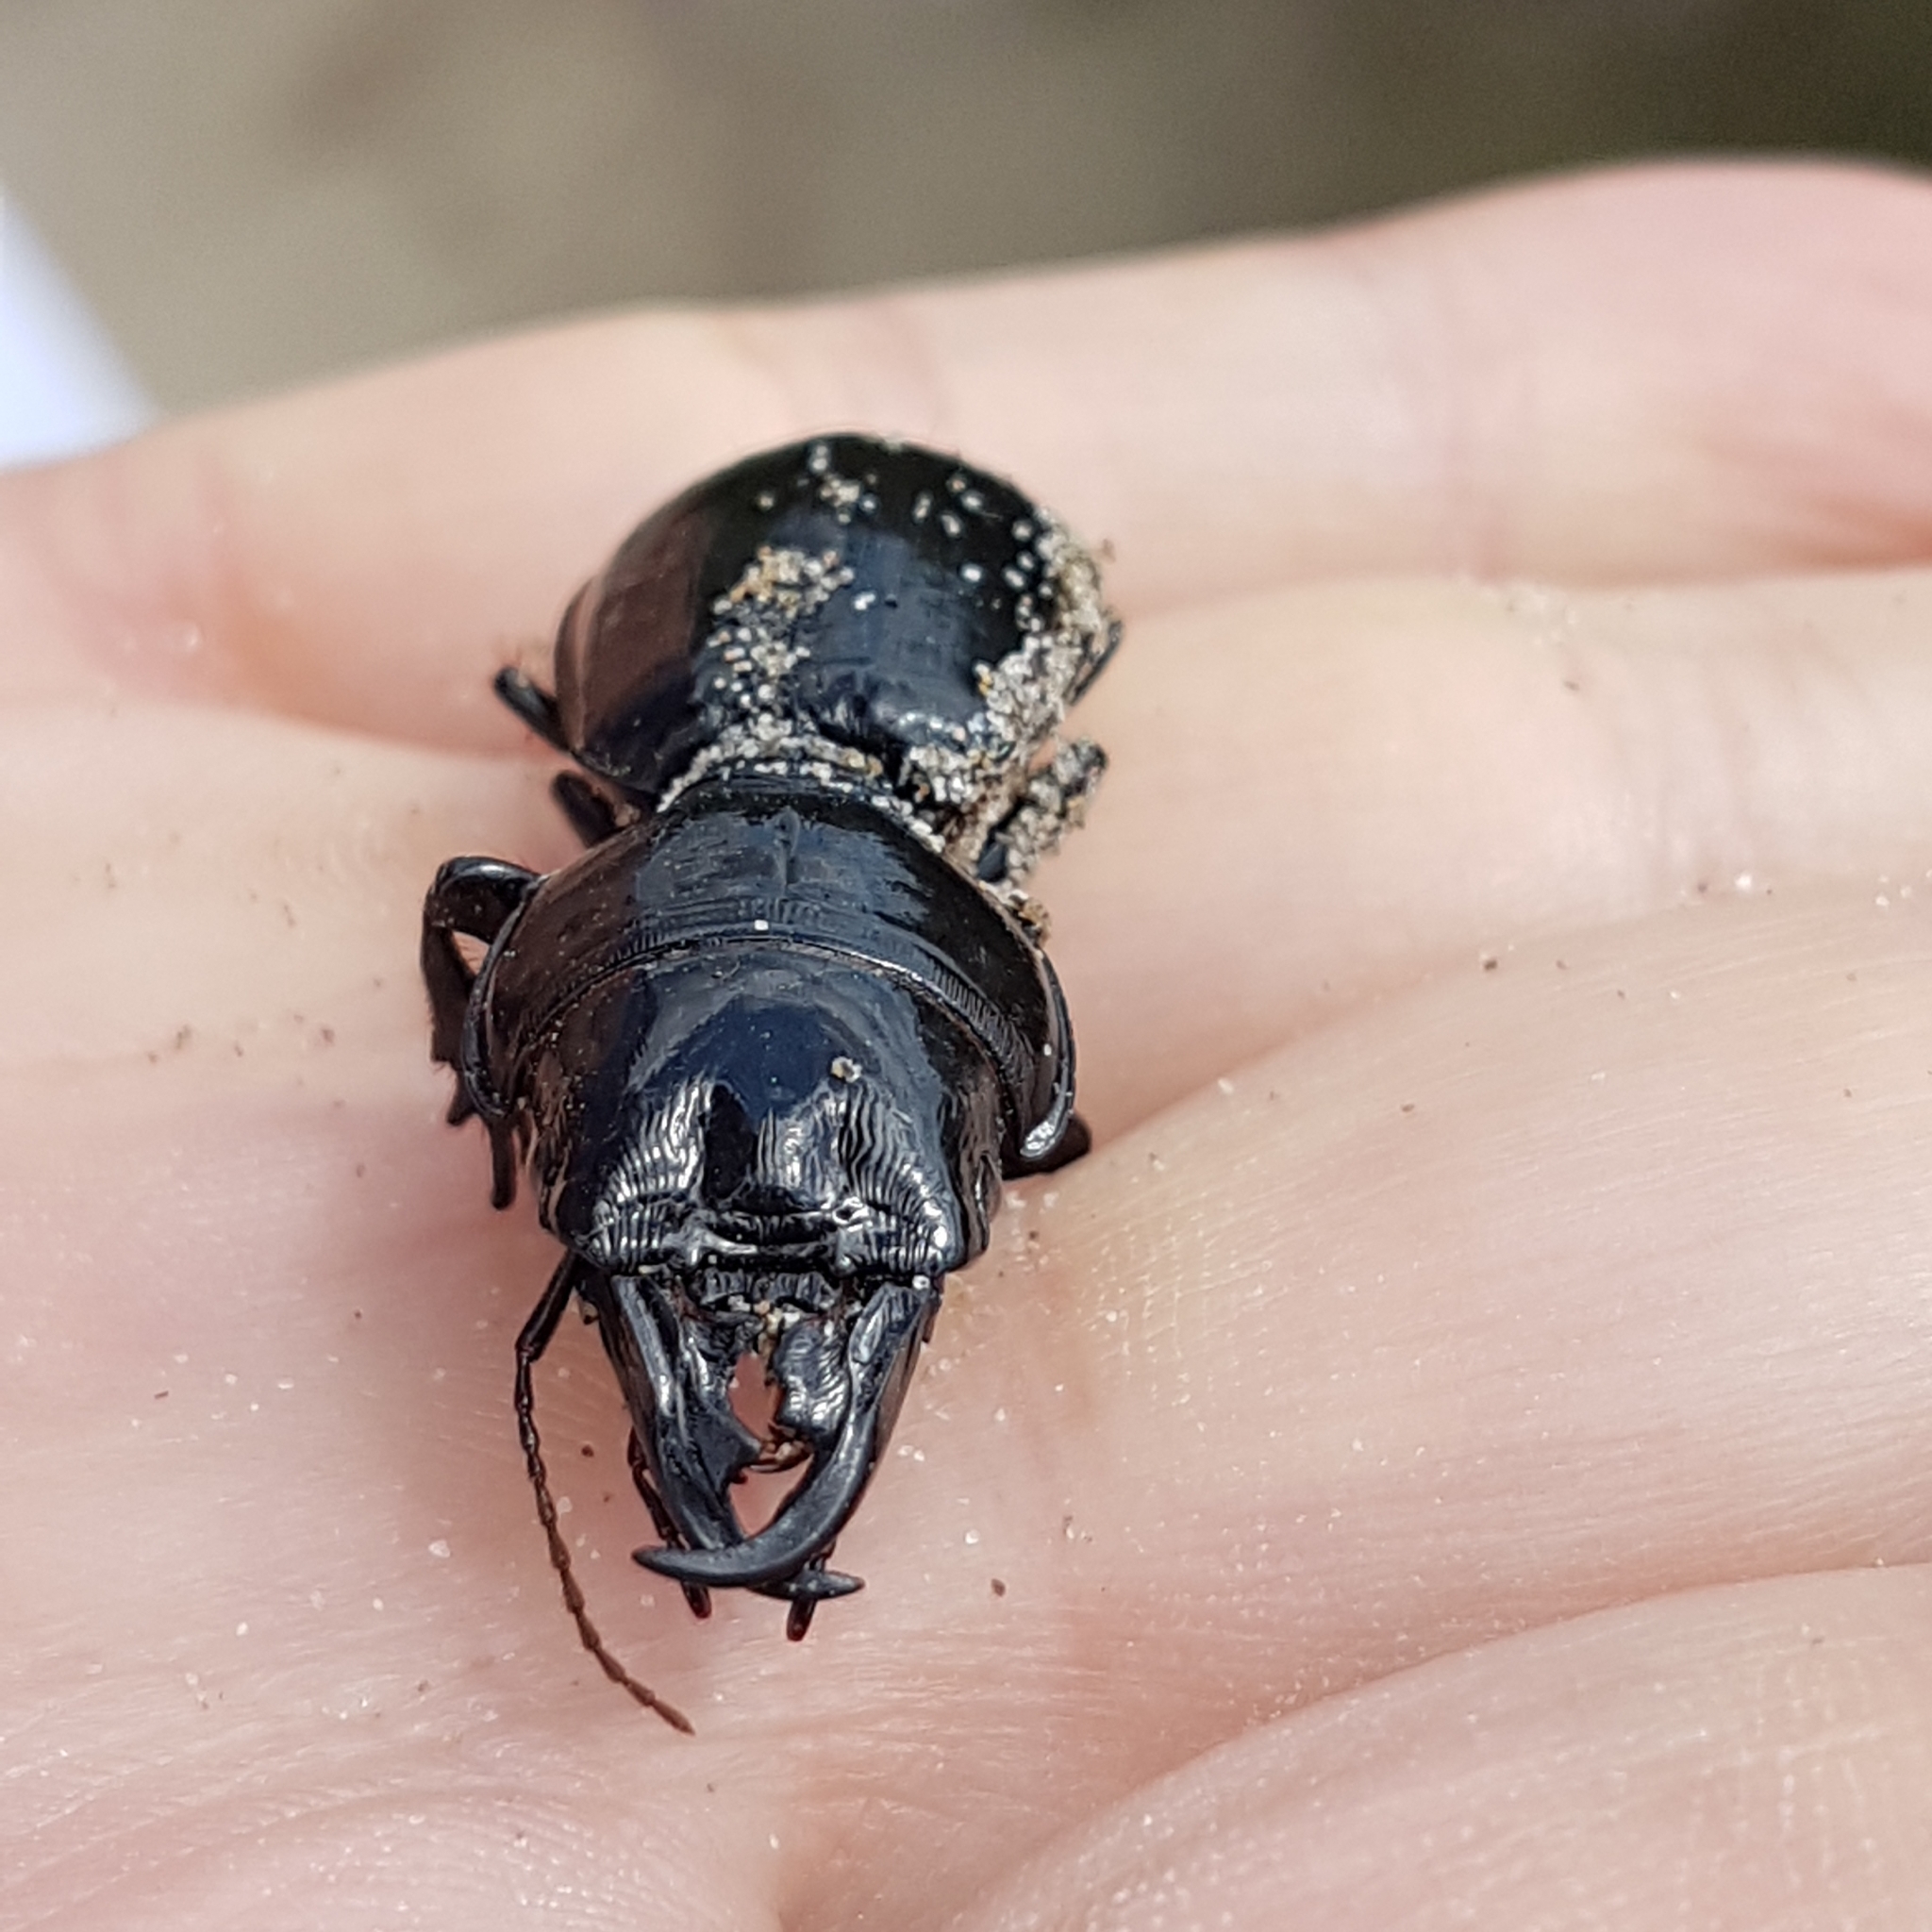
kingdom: Animalia
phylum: Arthropoda
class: Insecta
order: Coleoptera
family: Carabidae
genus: Scarites
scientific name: Scarites buparius
